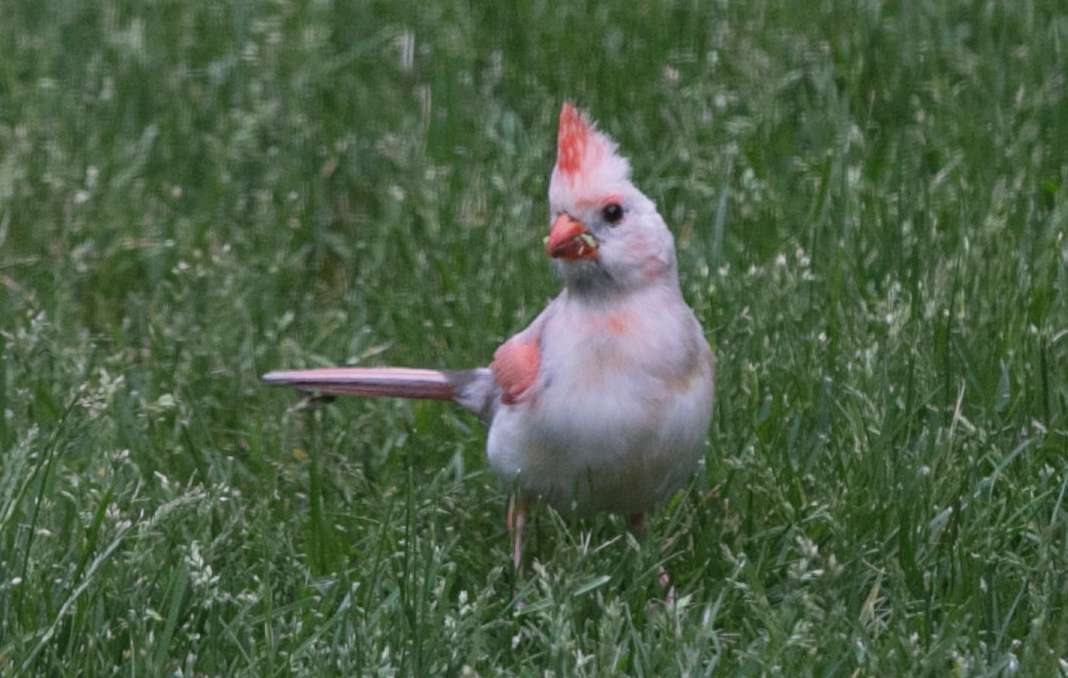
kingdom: Animalia
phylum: Chordata
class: Aves
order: Passeriformes
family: Cardinalidae
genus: Cardinalis
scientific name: Cardinalis cardinalis
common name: Northern cardinal
